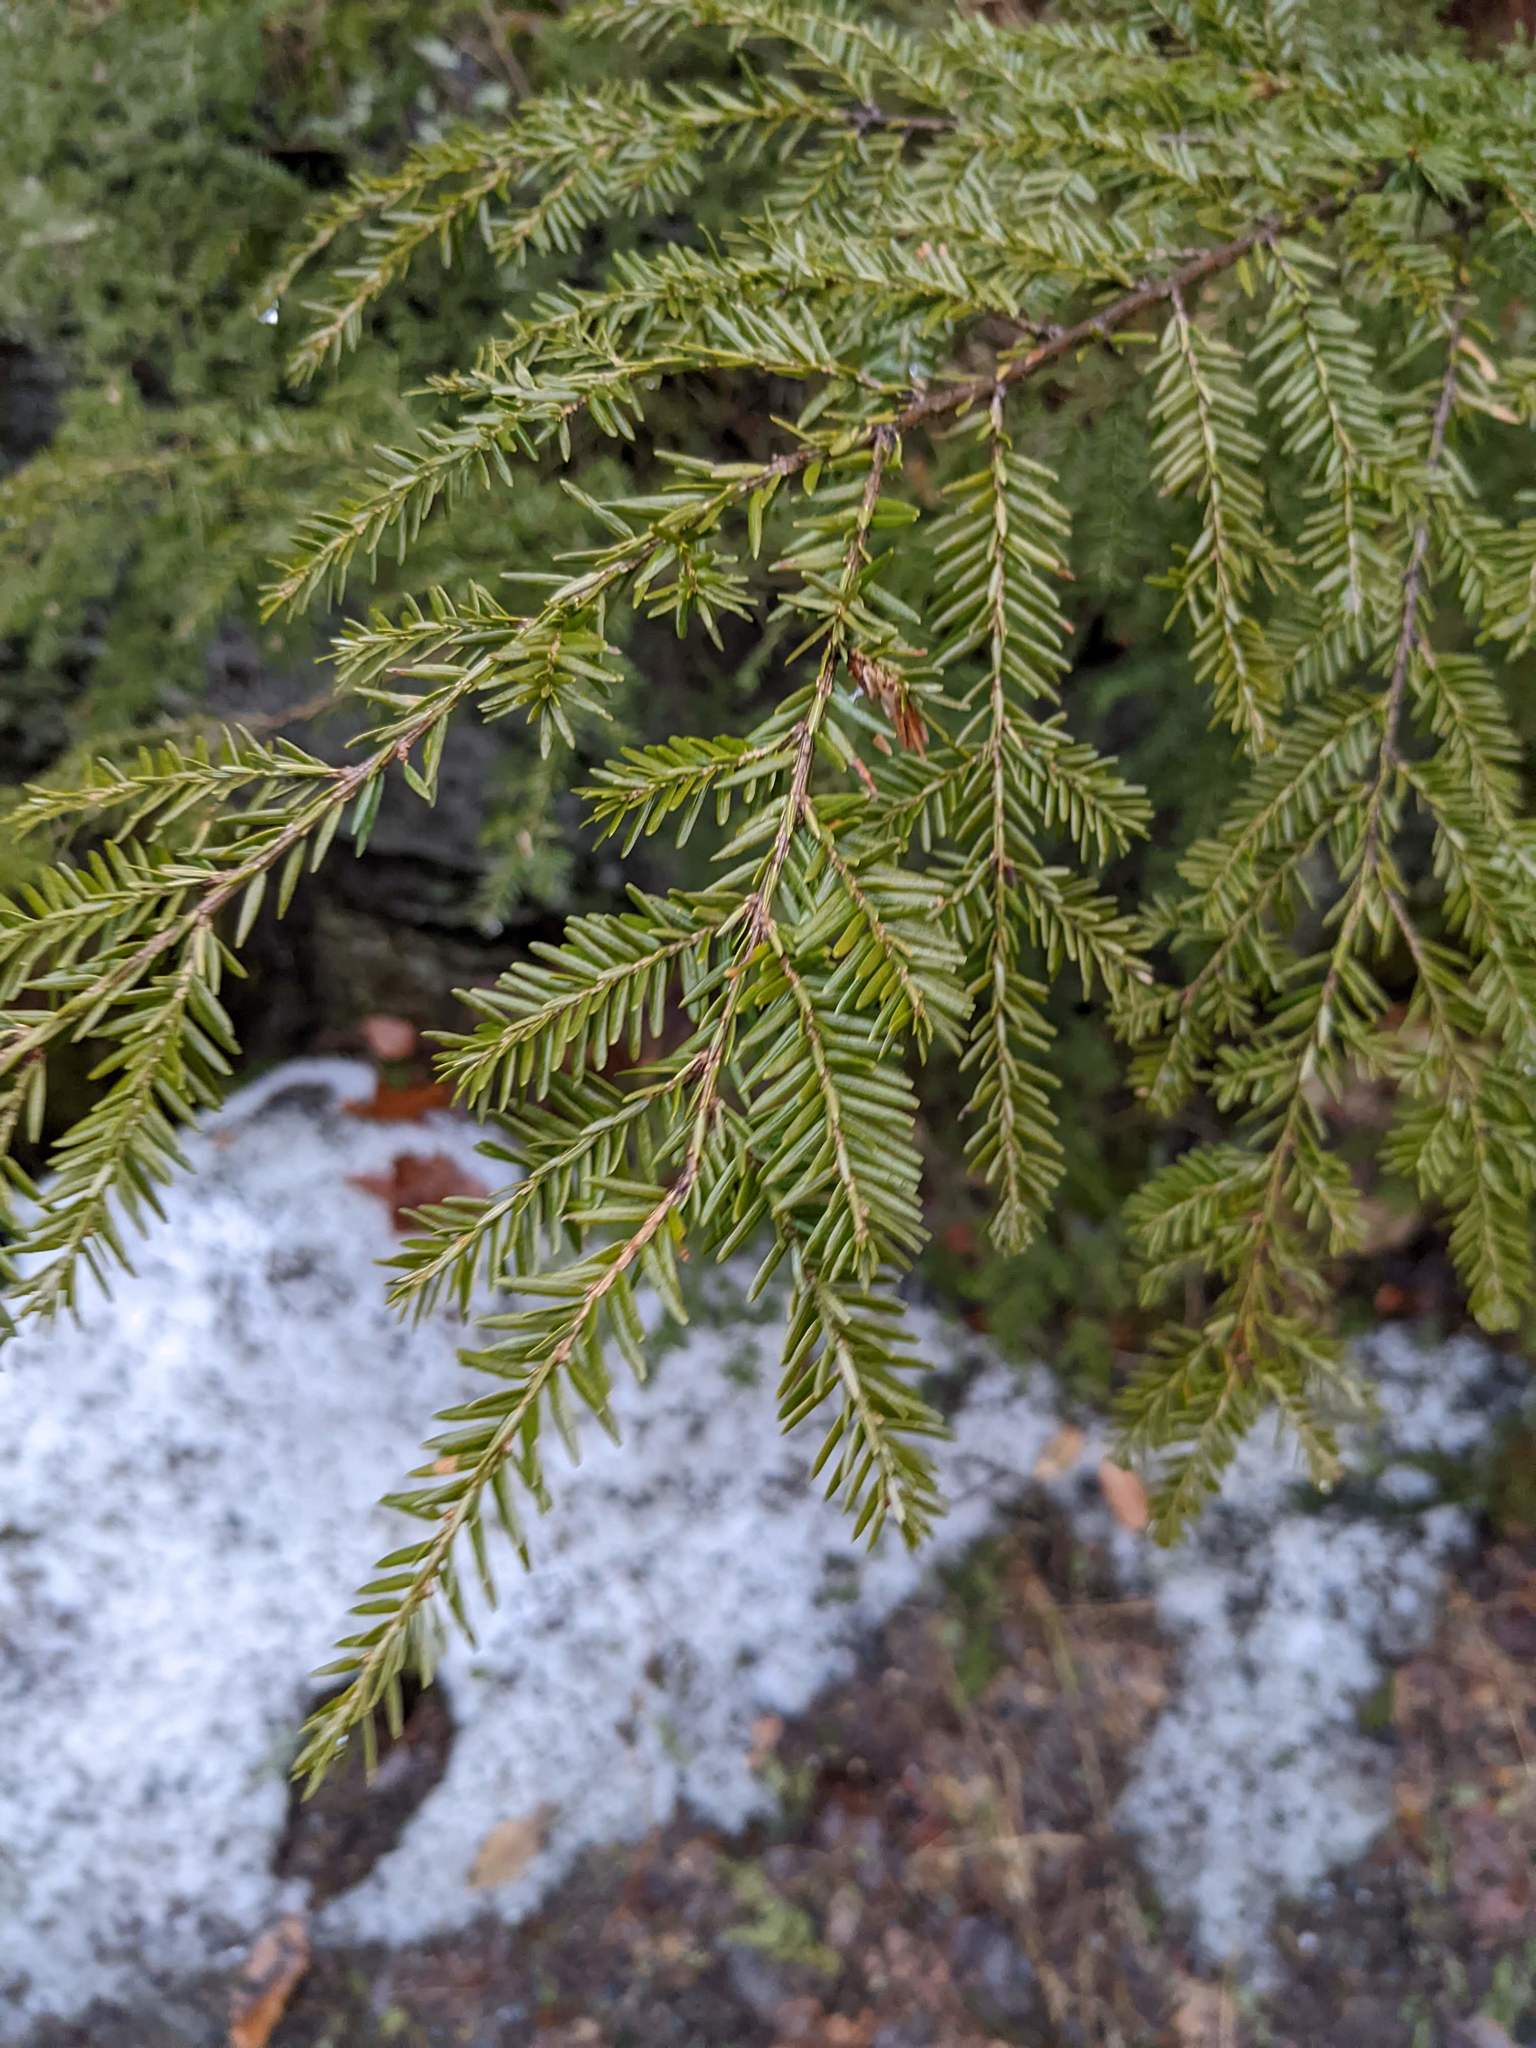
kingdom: Plantae
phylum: Tracheophyta
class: Pinopsida
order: Pinales
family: Pinaceae
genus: Tsuga
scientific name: Tsuga canadensis
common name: Eastern hemlock
